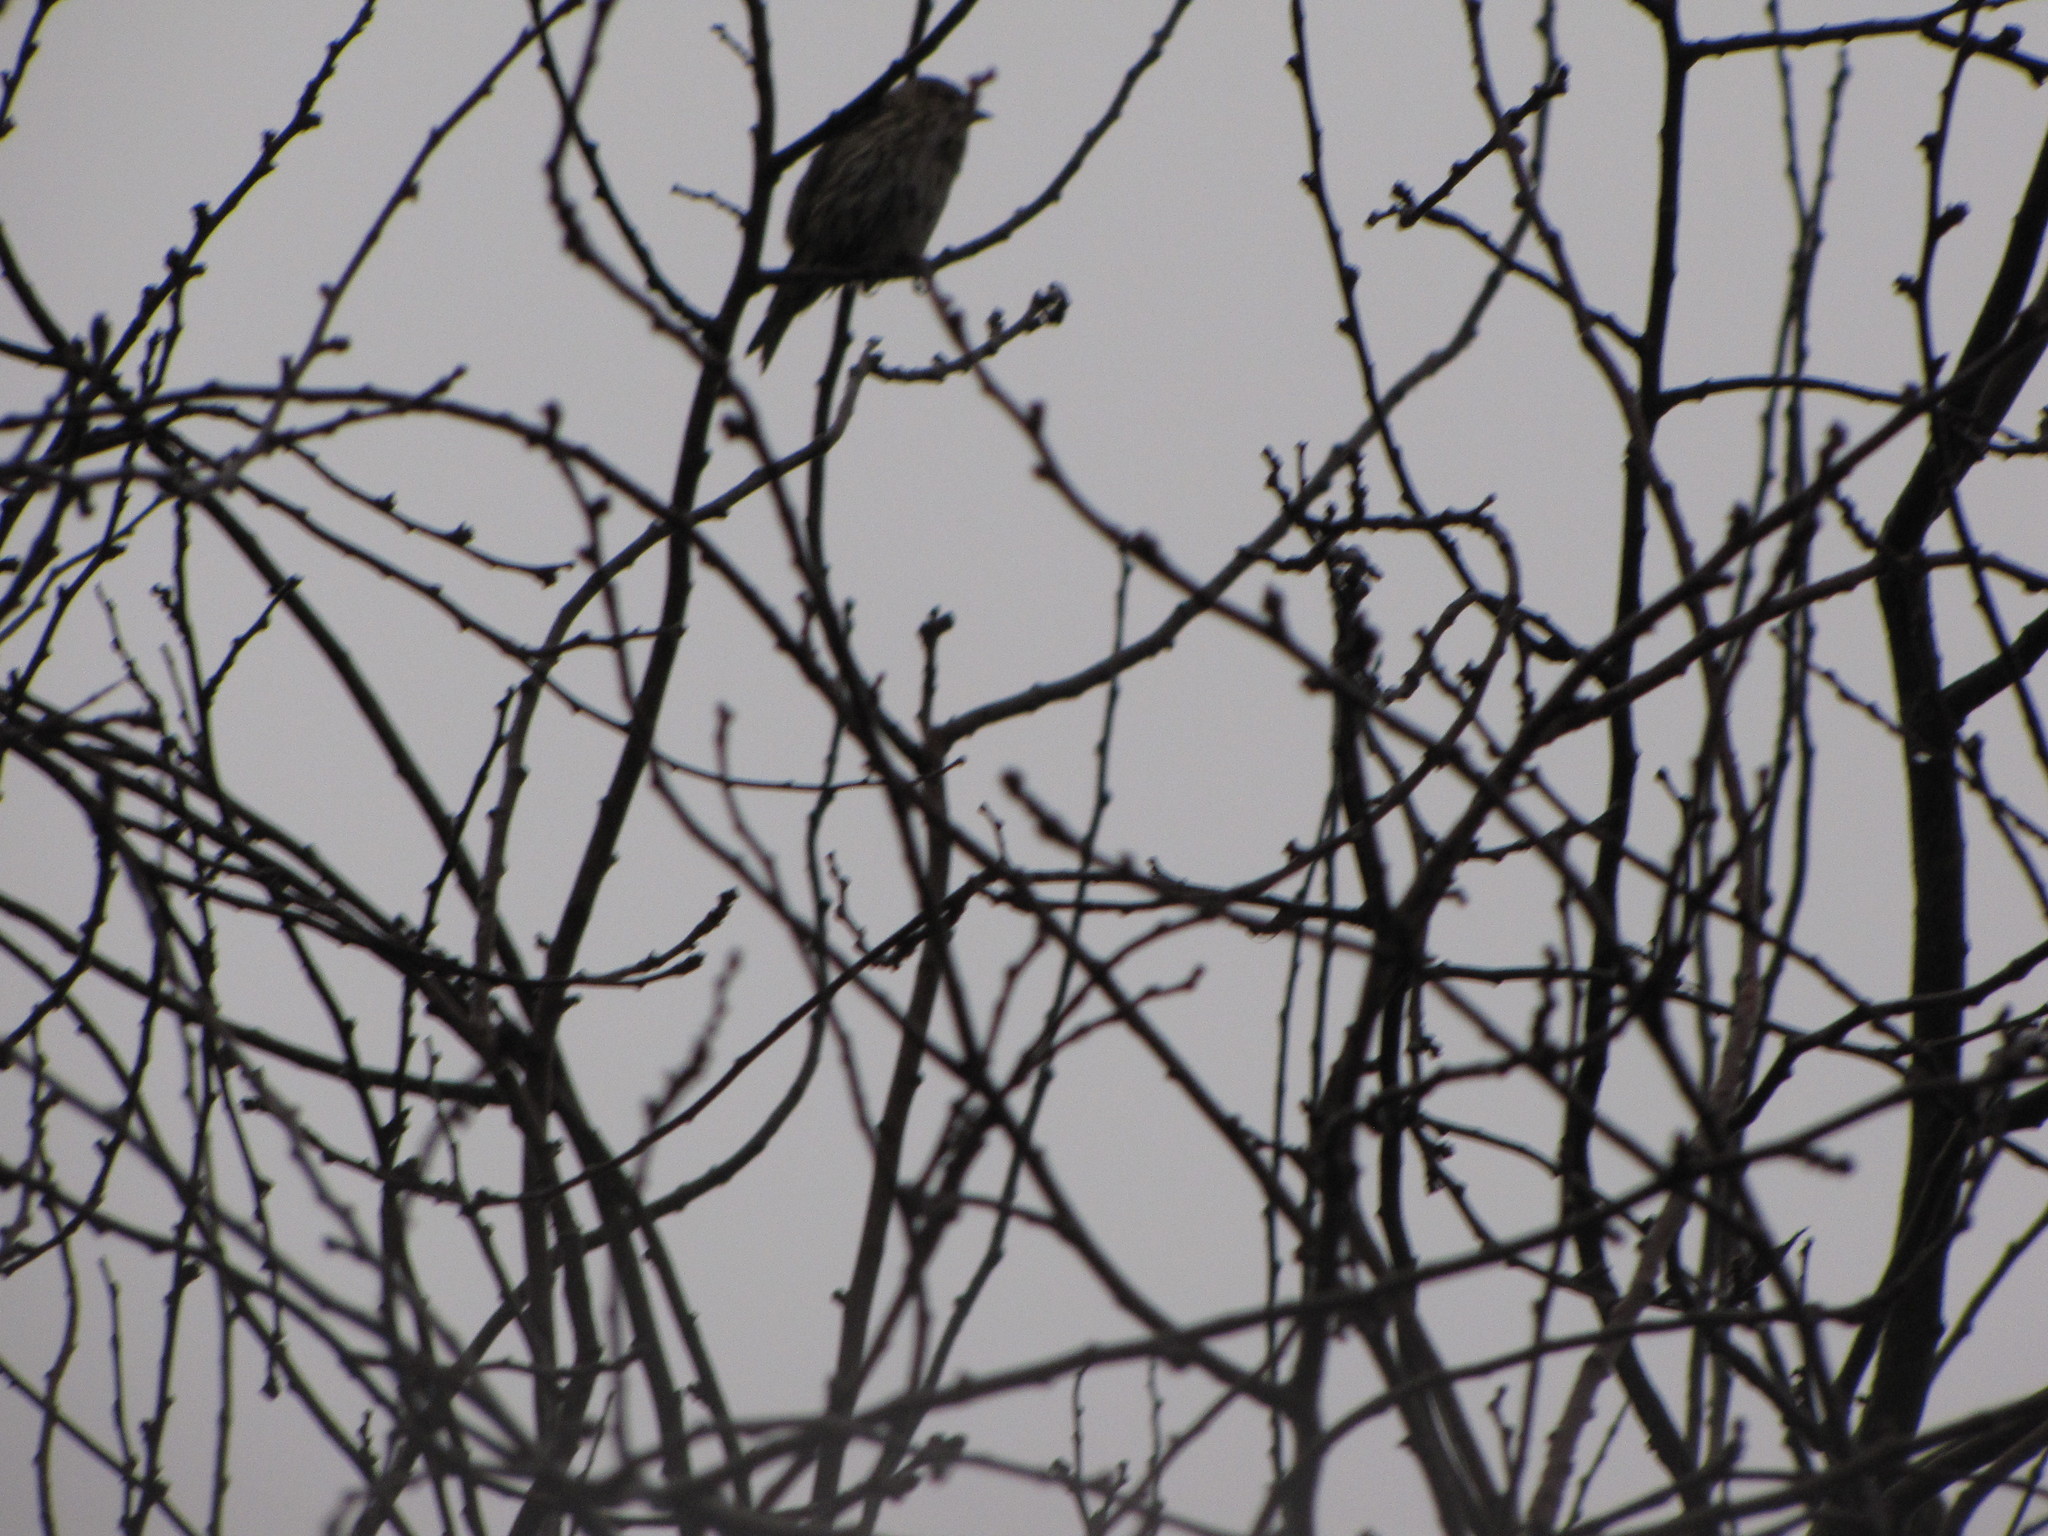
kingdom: Animalia
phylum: Chordata
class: Aves
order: Passeriformes
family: Fringillidae
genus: Spinus
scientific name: Spinus pinus
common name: Pine siskin
